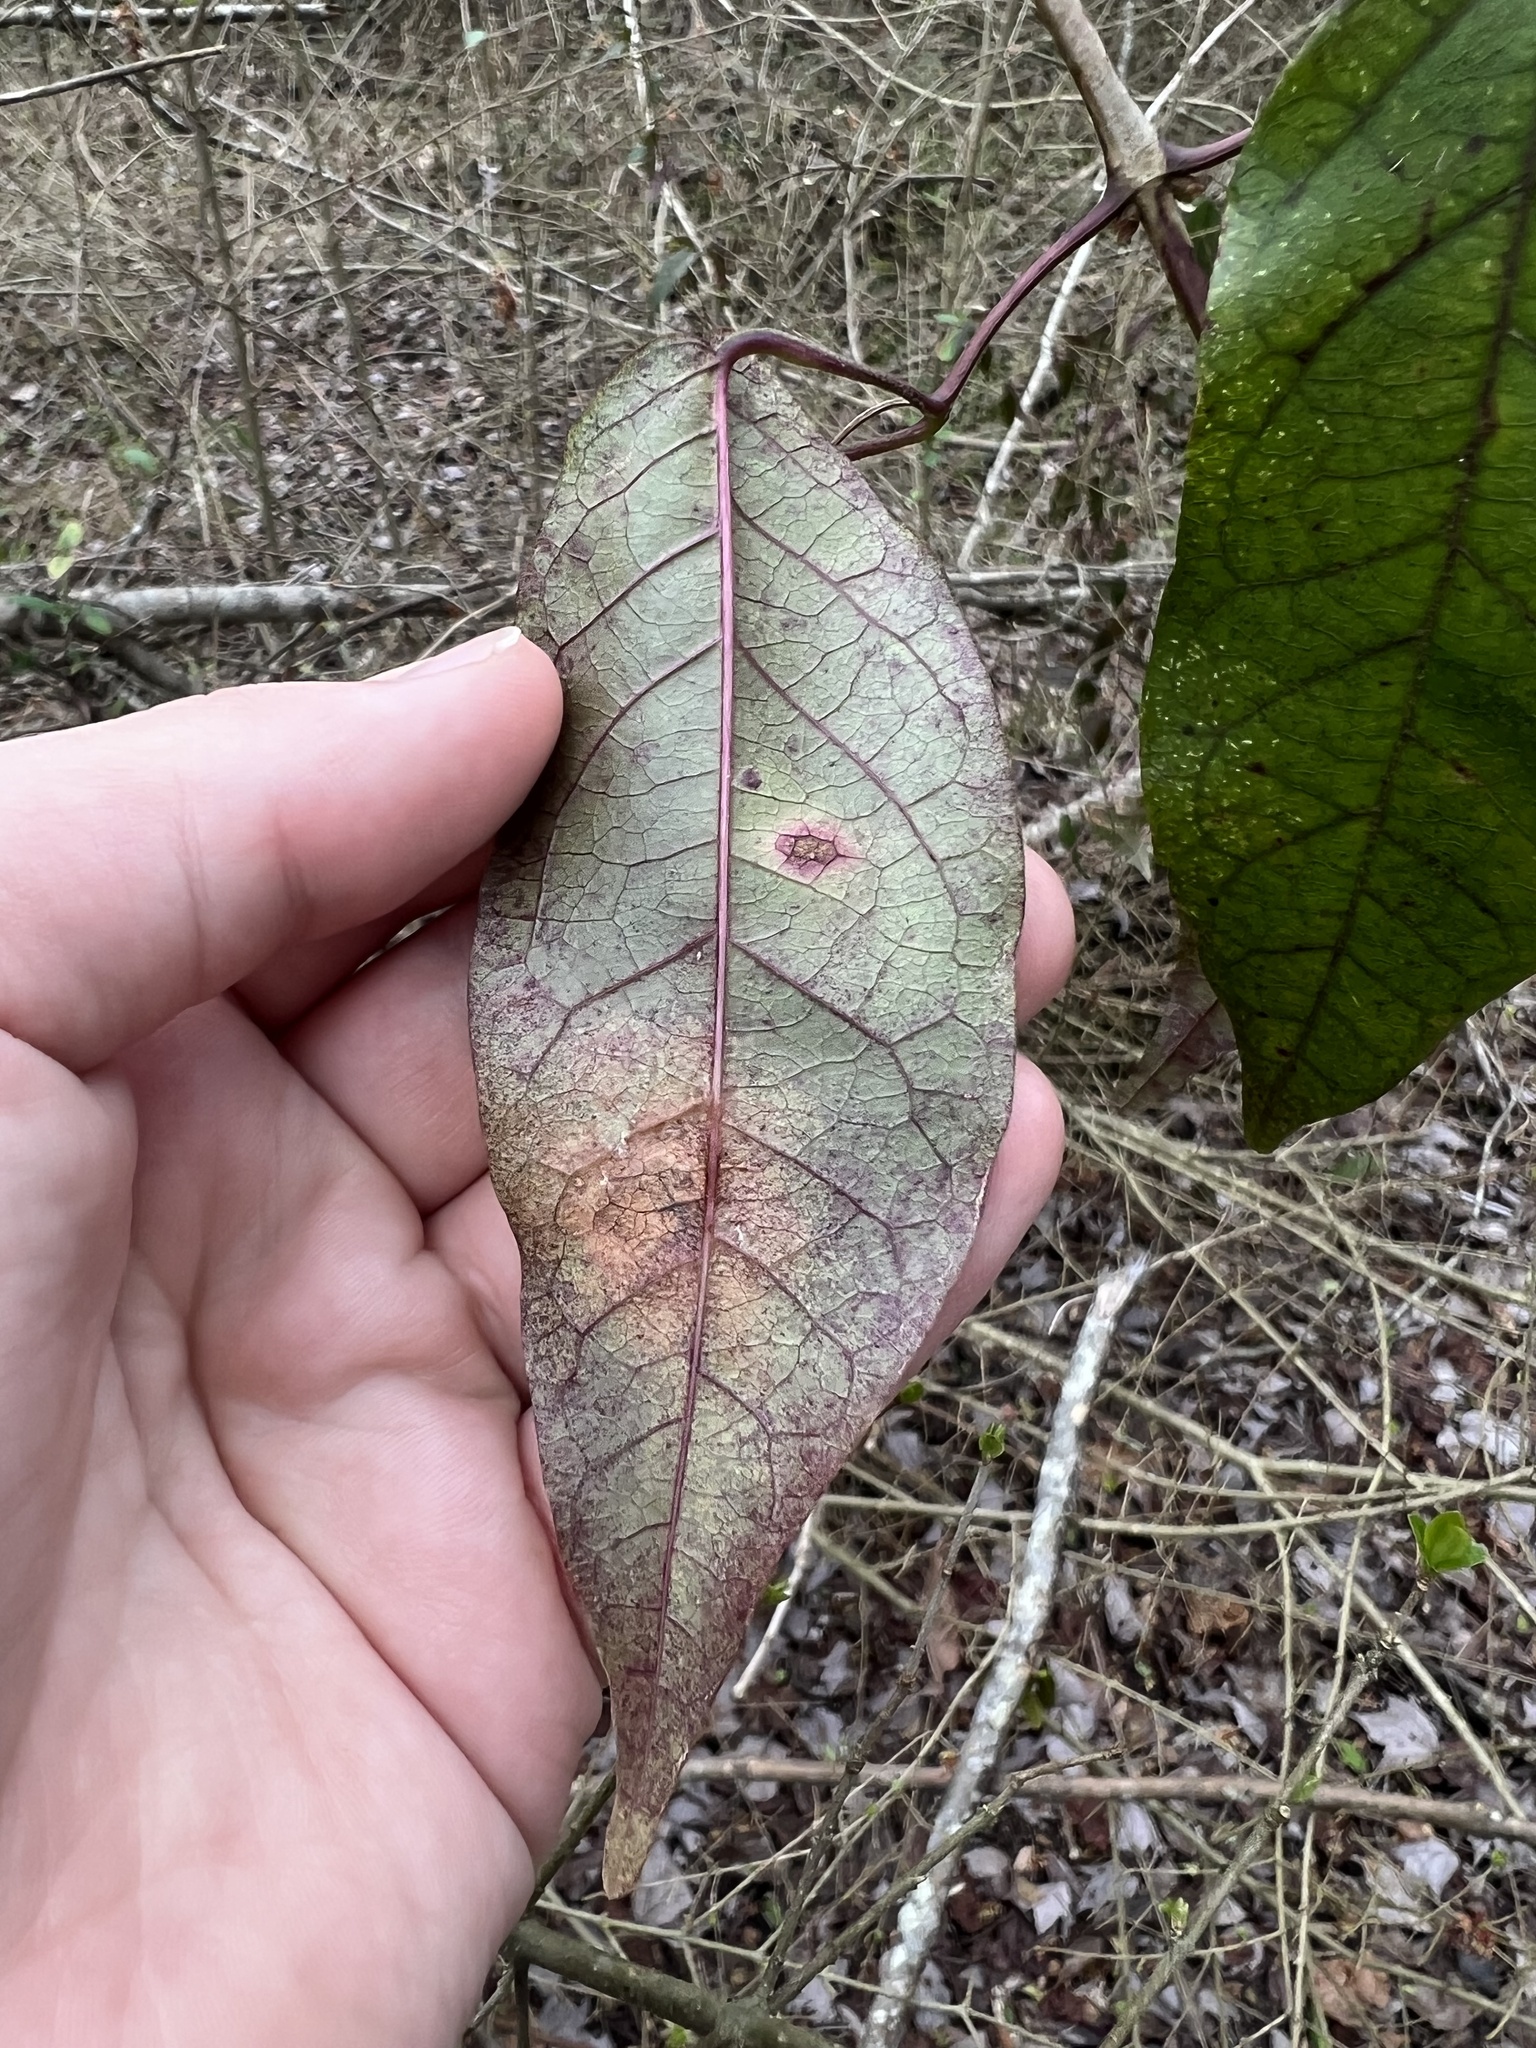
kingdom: Plantae
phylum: Tracheophyta
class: Magnoliopsida
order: Lamiales
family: Bignoniaceae
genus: Bignonia
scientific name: Bignonia capreolata
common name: Crossvine
